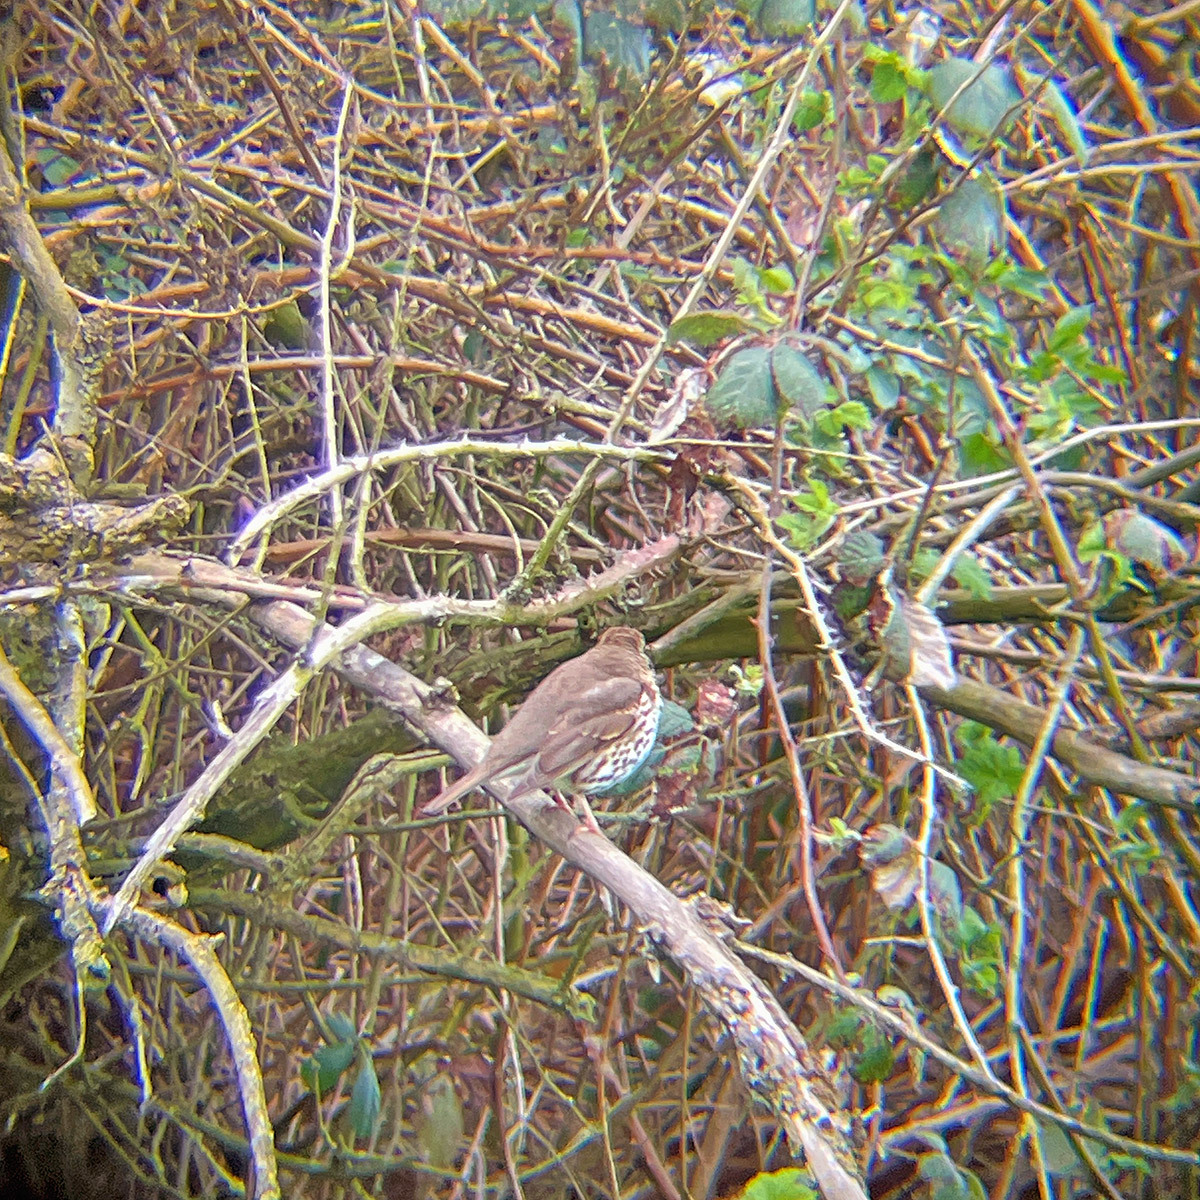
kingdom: Animalia
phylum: Chordata
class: Aves
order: Passeriformes
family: Turdidae
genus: Turdus
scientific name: Turdus philomelos
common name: Song thrush
